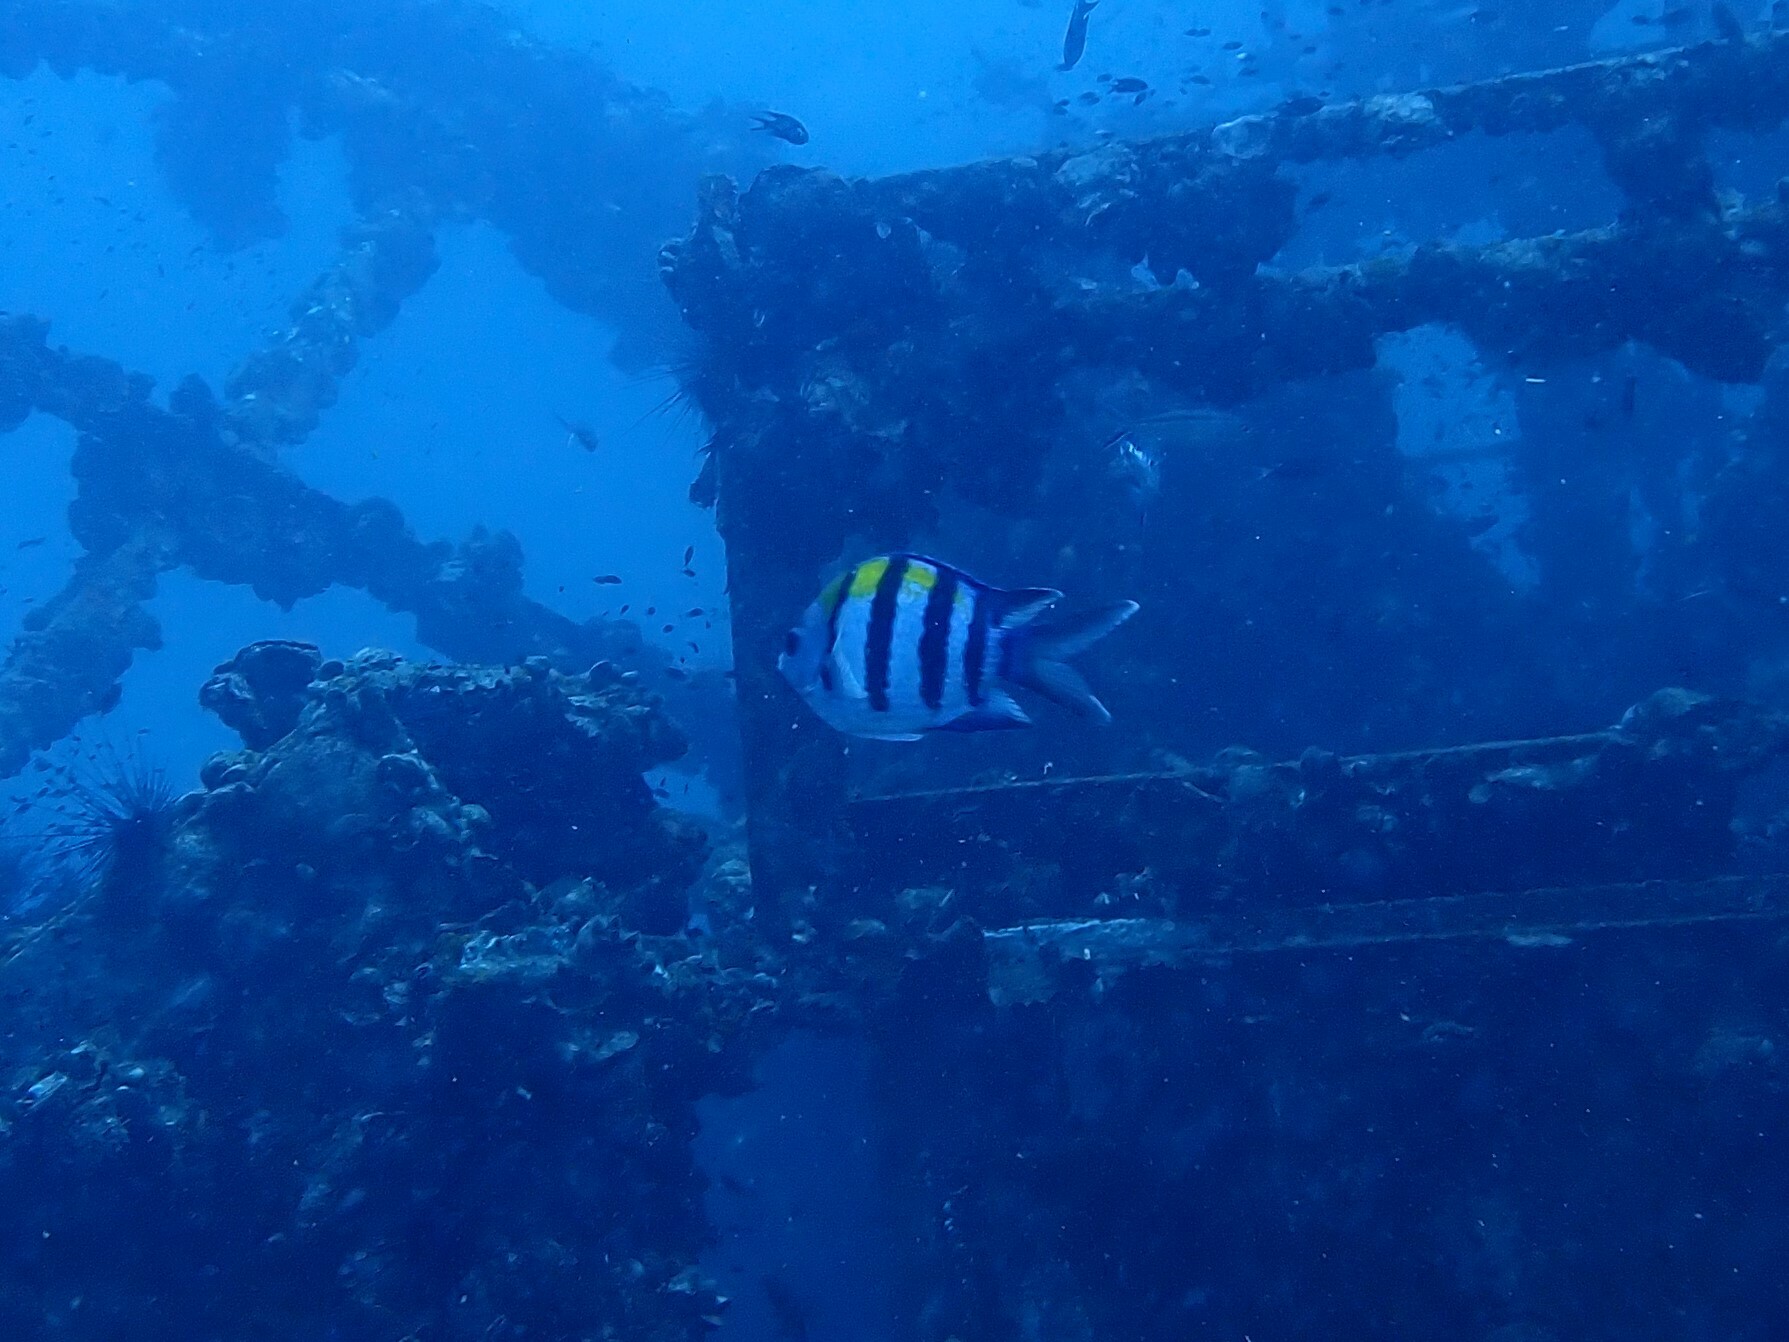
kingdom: Animalia
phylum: Chordata
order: Perciformes
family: Pomacentridae
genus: Abudefduf
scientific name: Abudefduf vaigiensis
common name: Indo-pacific sergeant
